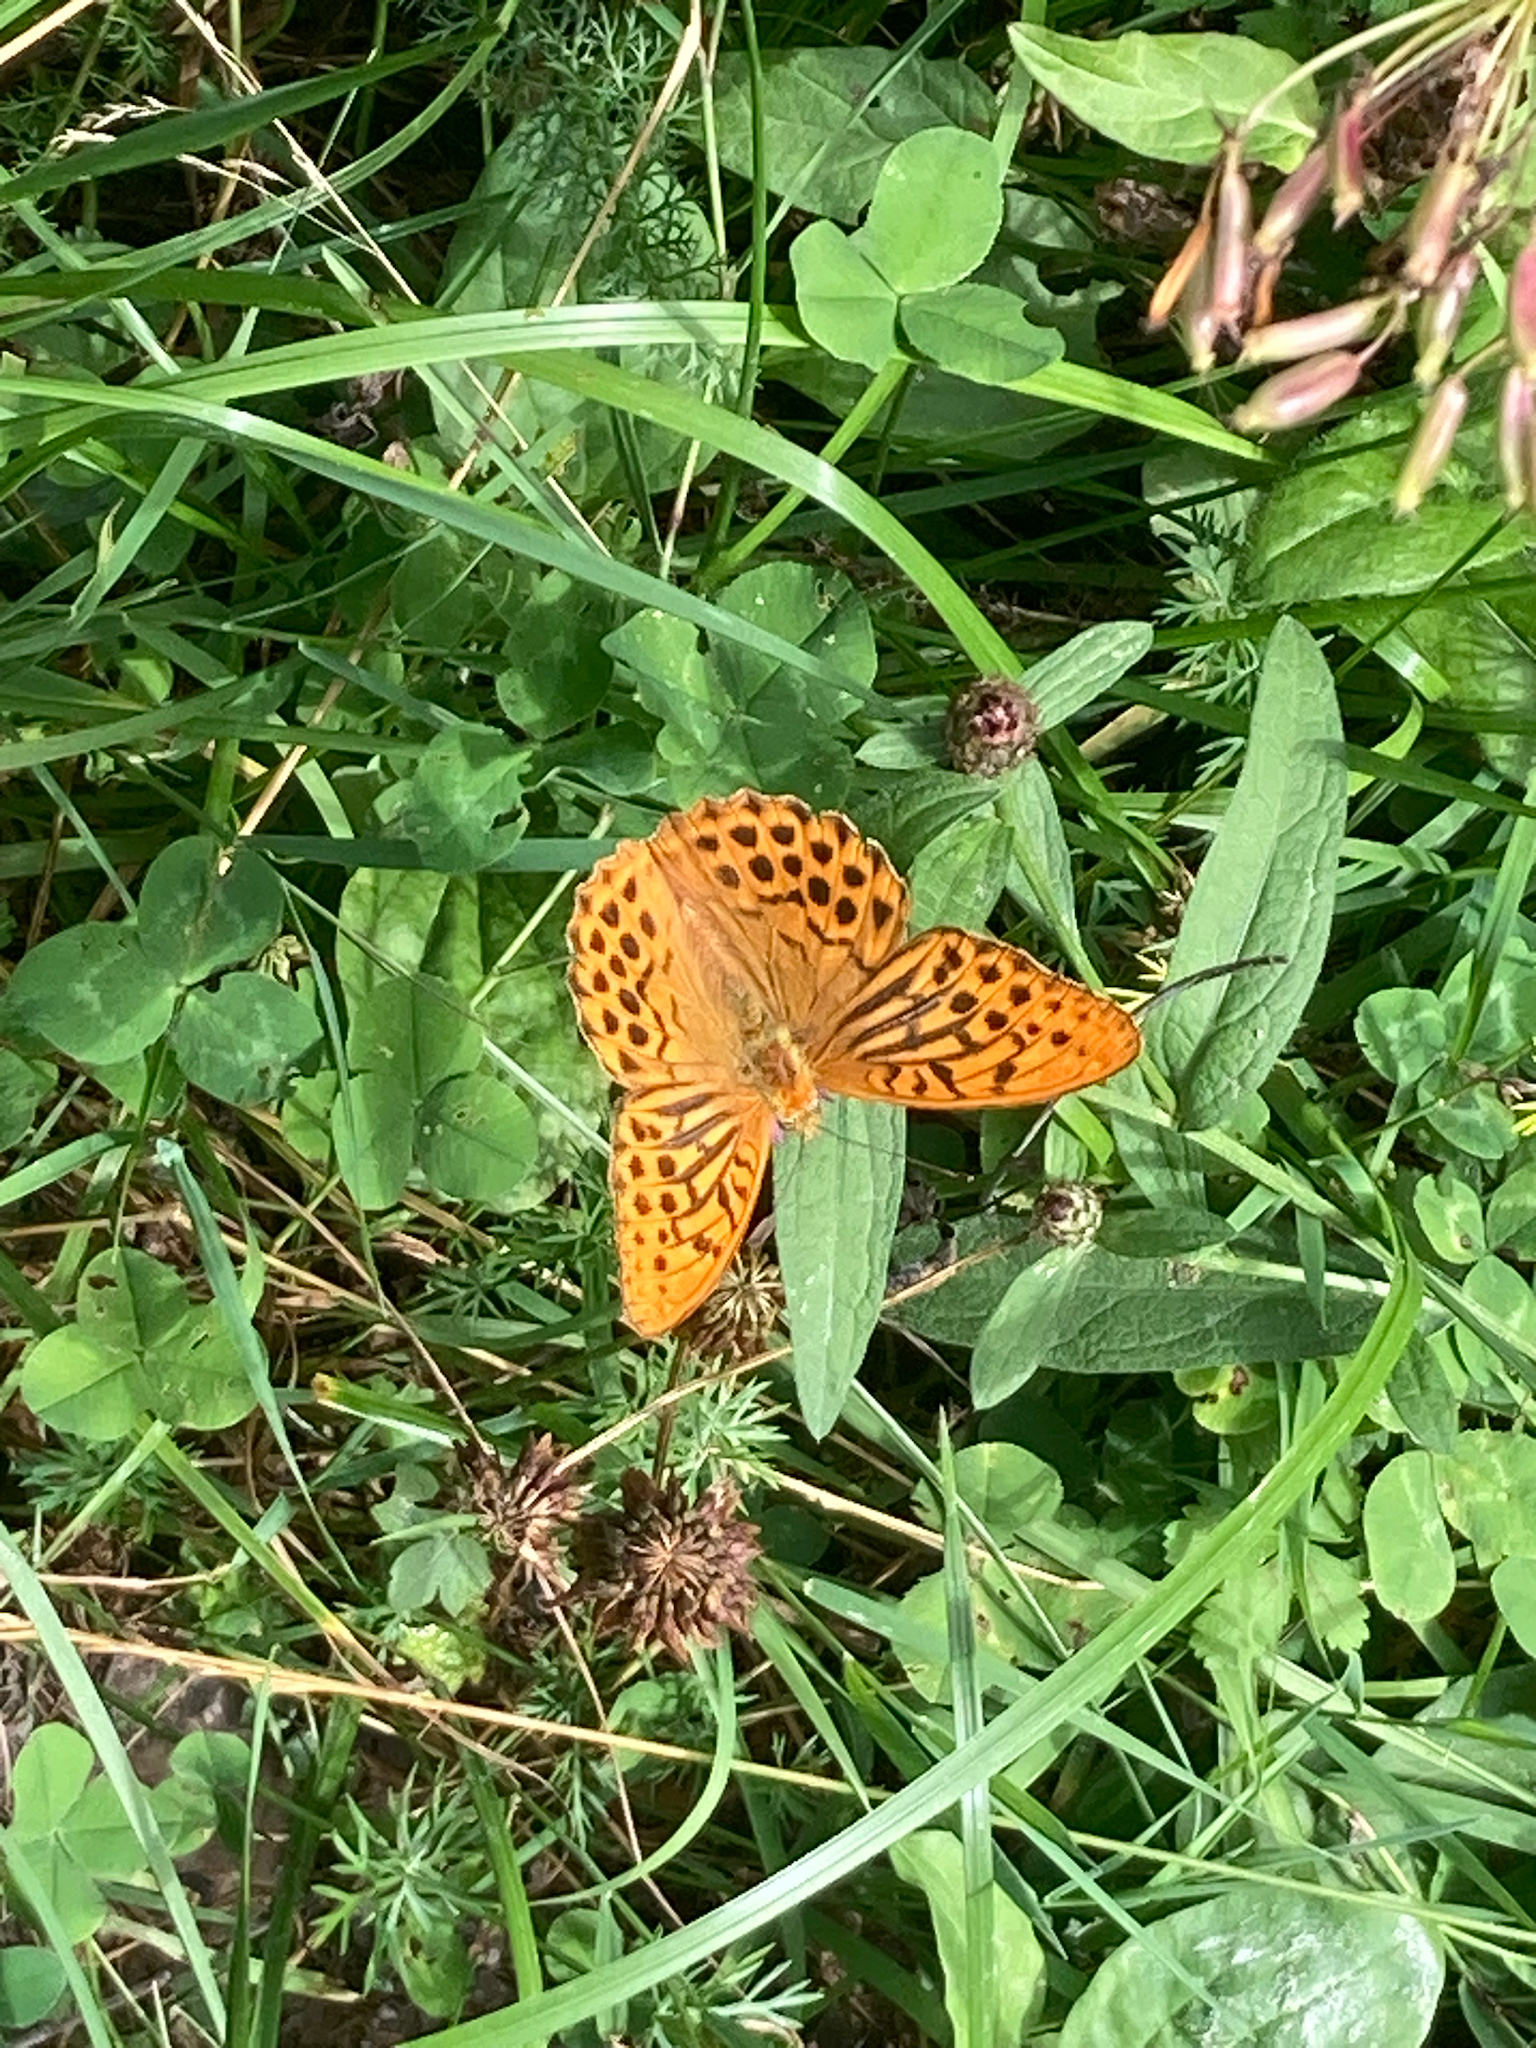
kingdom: Animalia
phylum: Arthropoda
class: Insecta
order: Lepidoptera
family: Nymphalidae
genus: Argynnis
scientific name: Argynnis paphia
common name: Silver-washed fritillary
